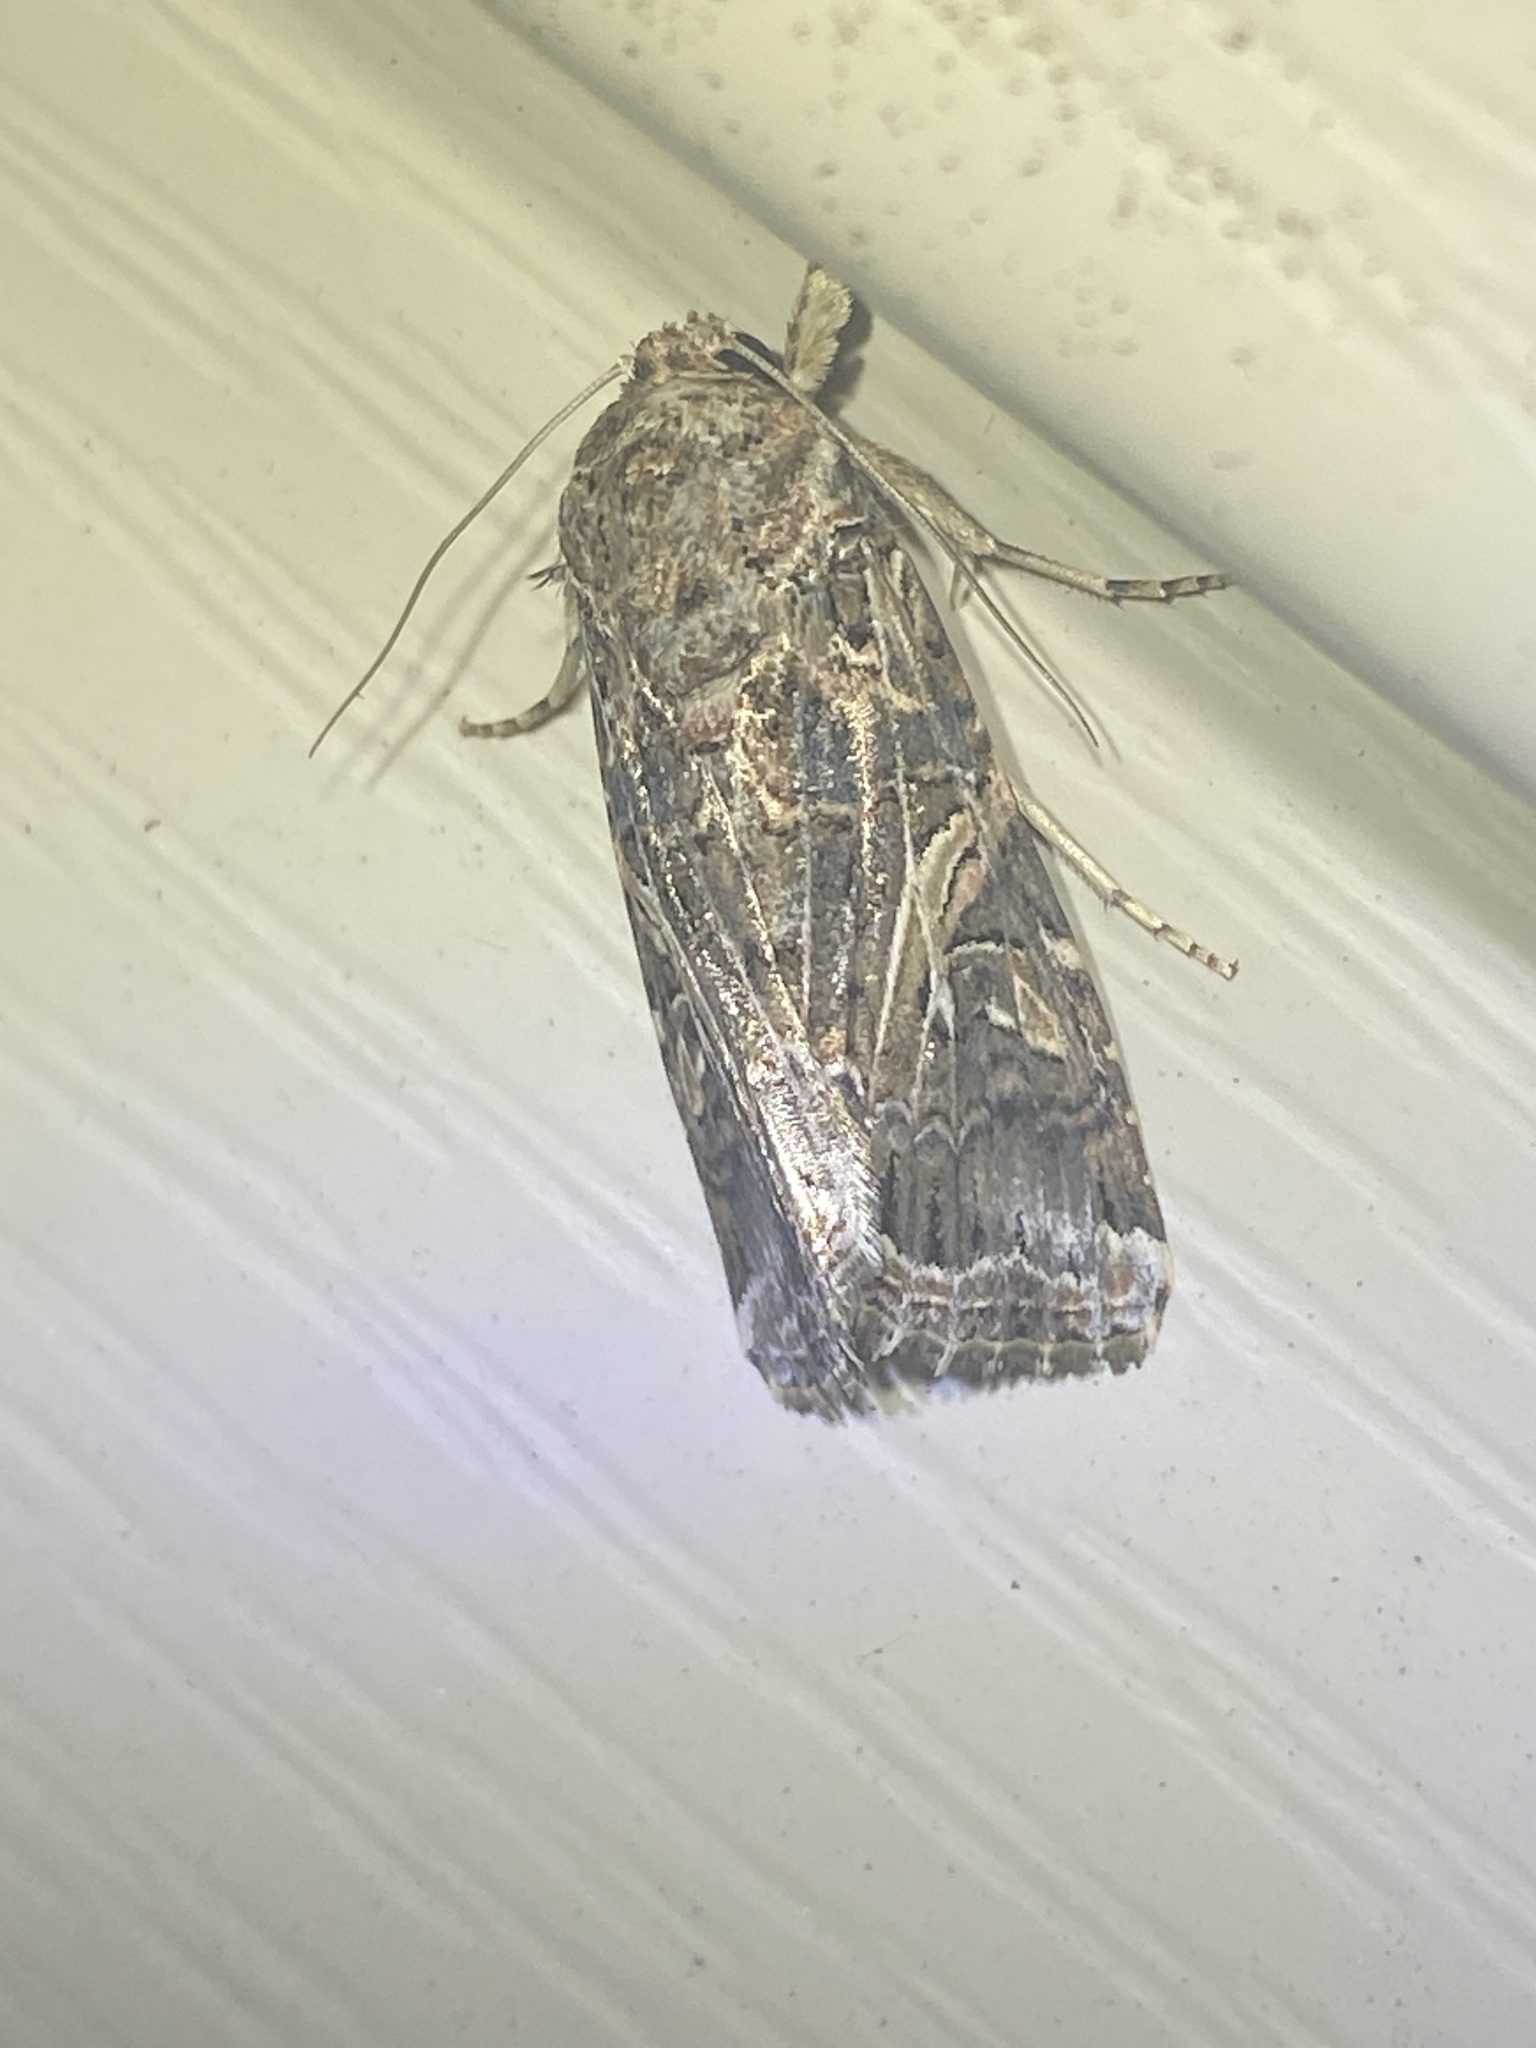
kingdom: Animalia
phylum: Arthropoda
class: Insecta
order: Lepidoptera
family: Noctuidae
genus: Spodoptera
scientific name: Spodoptera ornithogalli
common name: Yellow-striped armyworm
